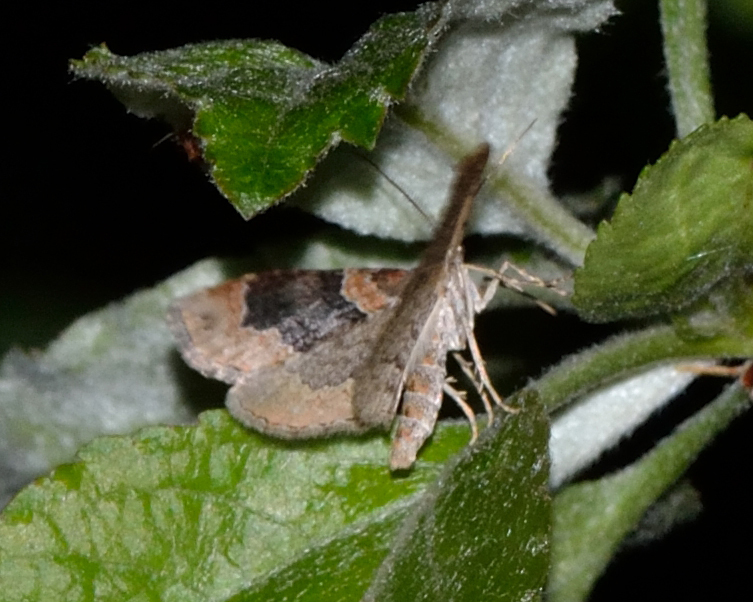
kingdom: Animalia
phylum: Arthropoda
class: Insecta
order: Lepidoptera
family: Geometridae
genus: Xanthorhoe
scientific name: Xanthorhoe ferrugata
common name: Dark-barred twin-spot carpet
